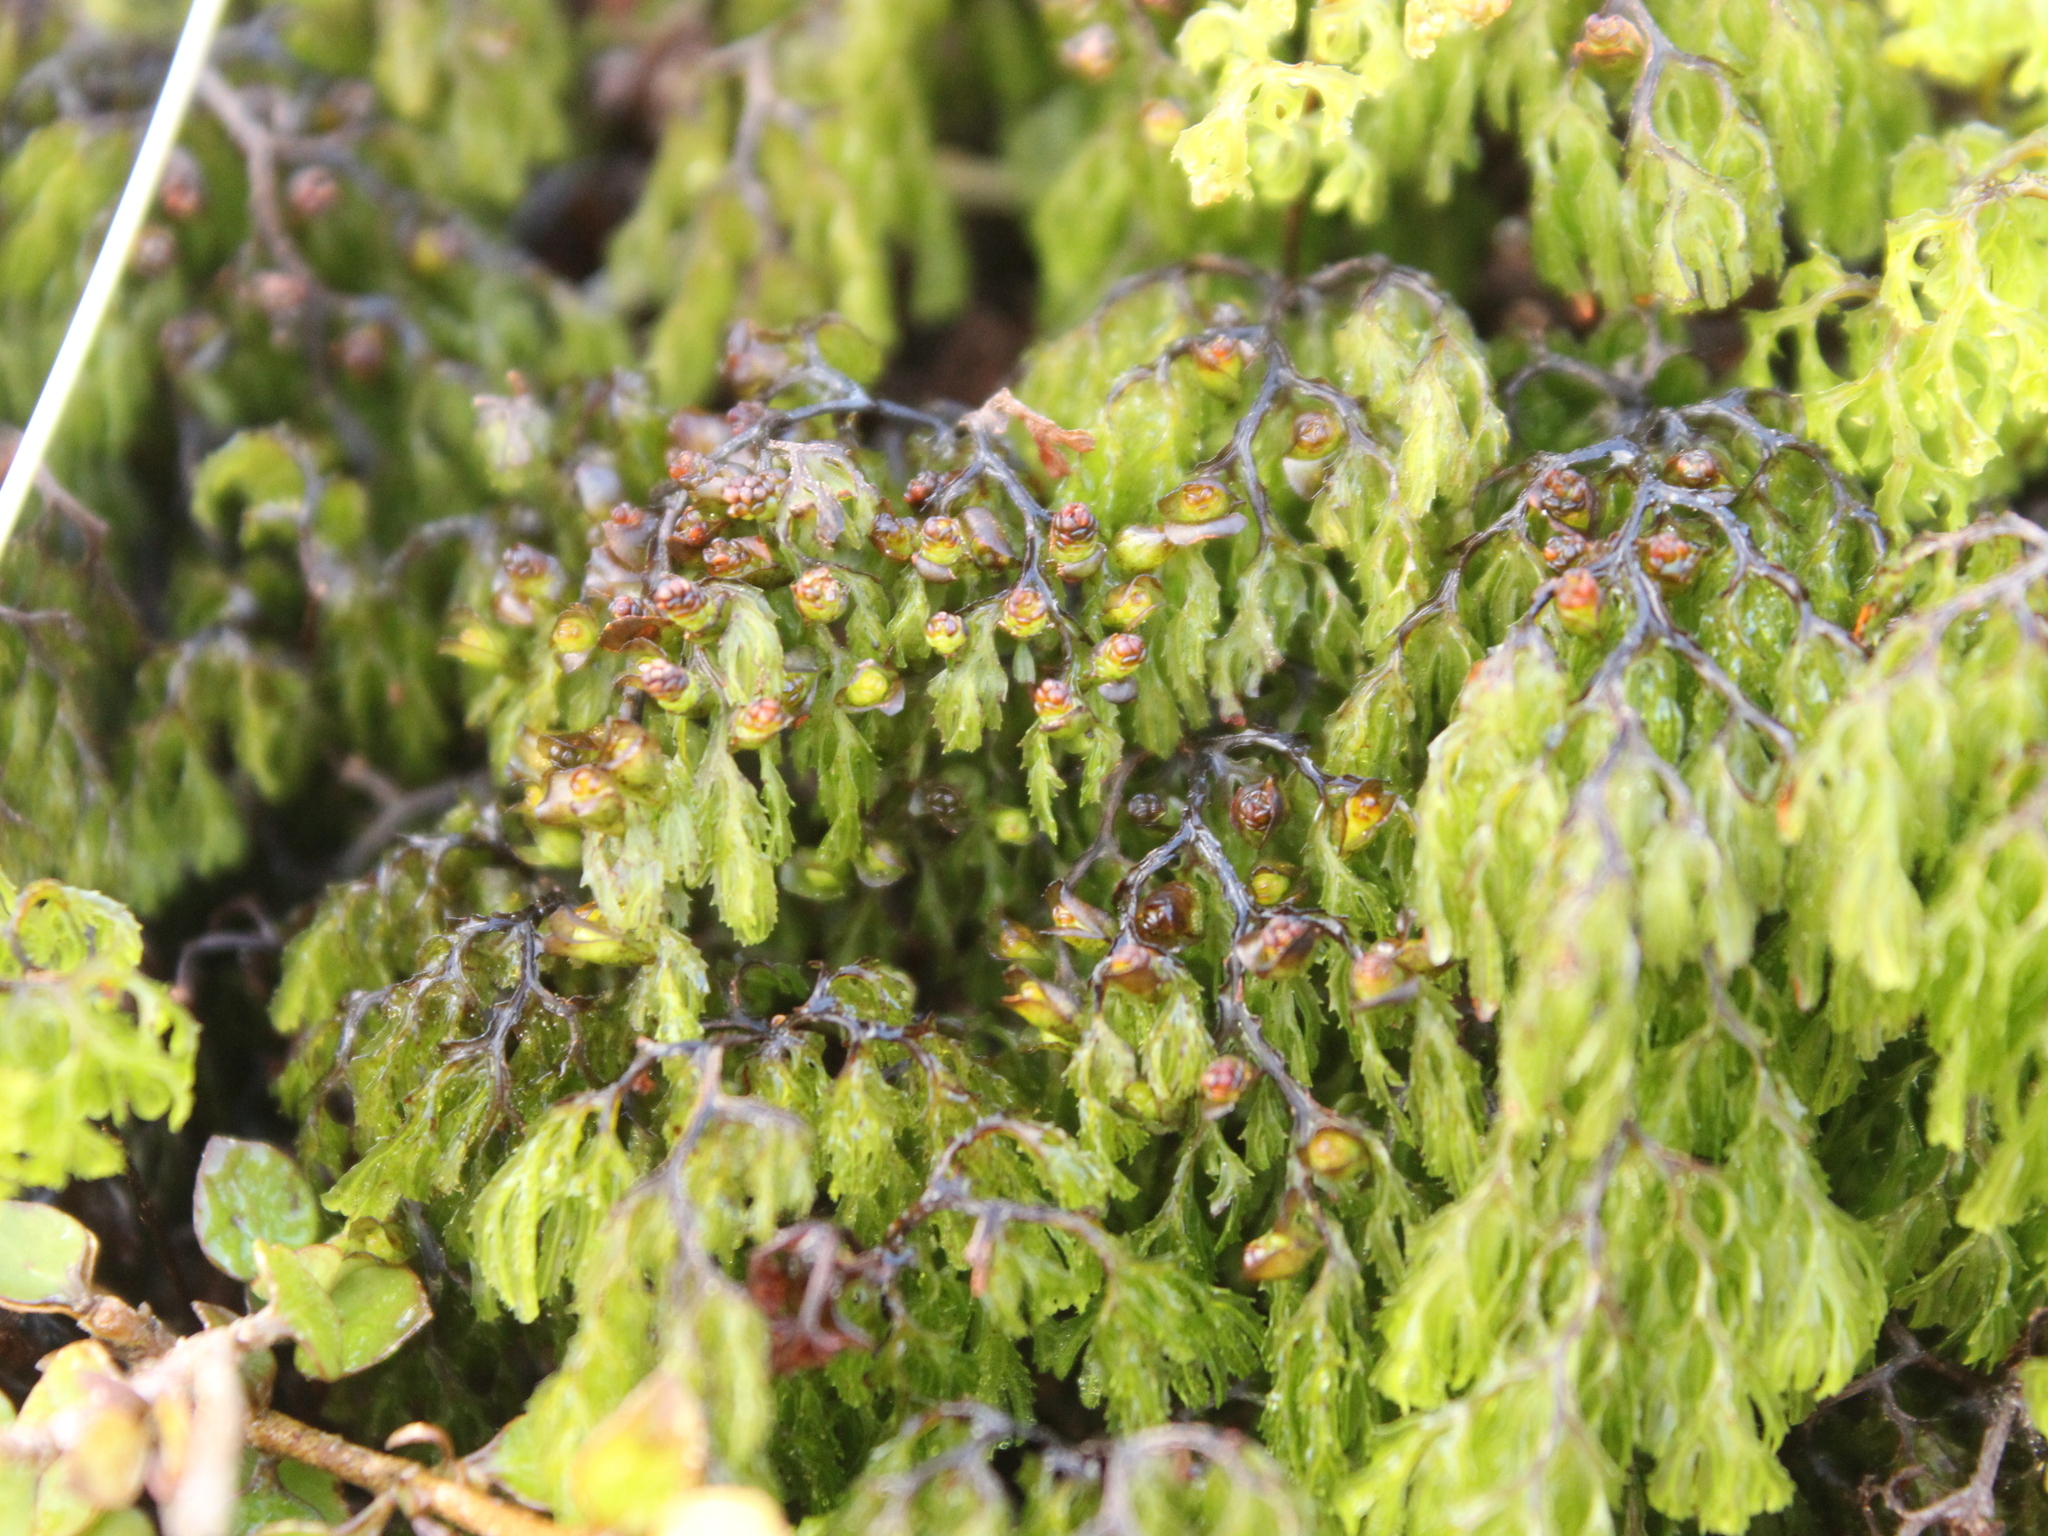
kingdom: Plantae
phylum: Tracheophyta
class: Polypodiopsida
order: Hymenophyllales
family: Hymenophyllaceae
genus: Hymenophyllum
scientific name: Hymenophyllum multifidum
